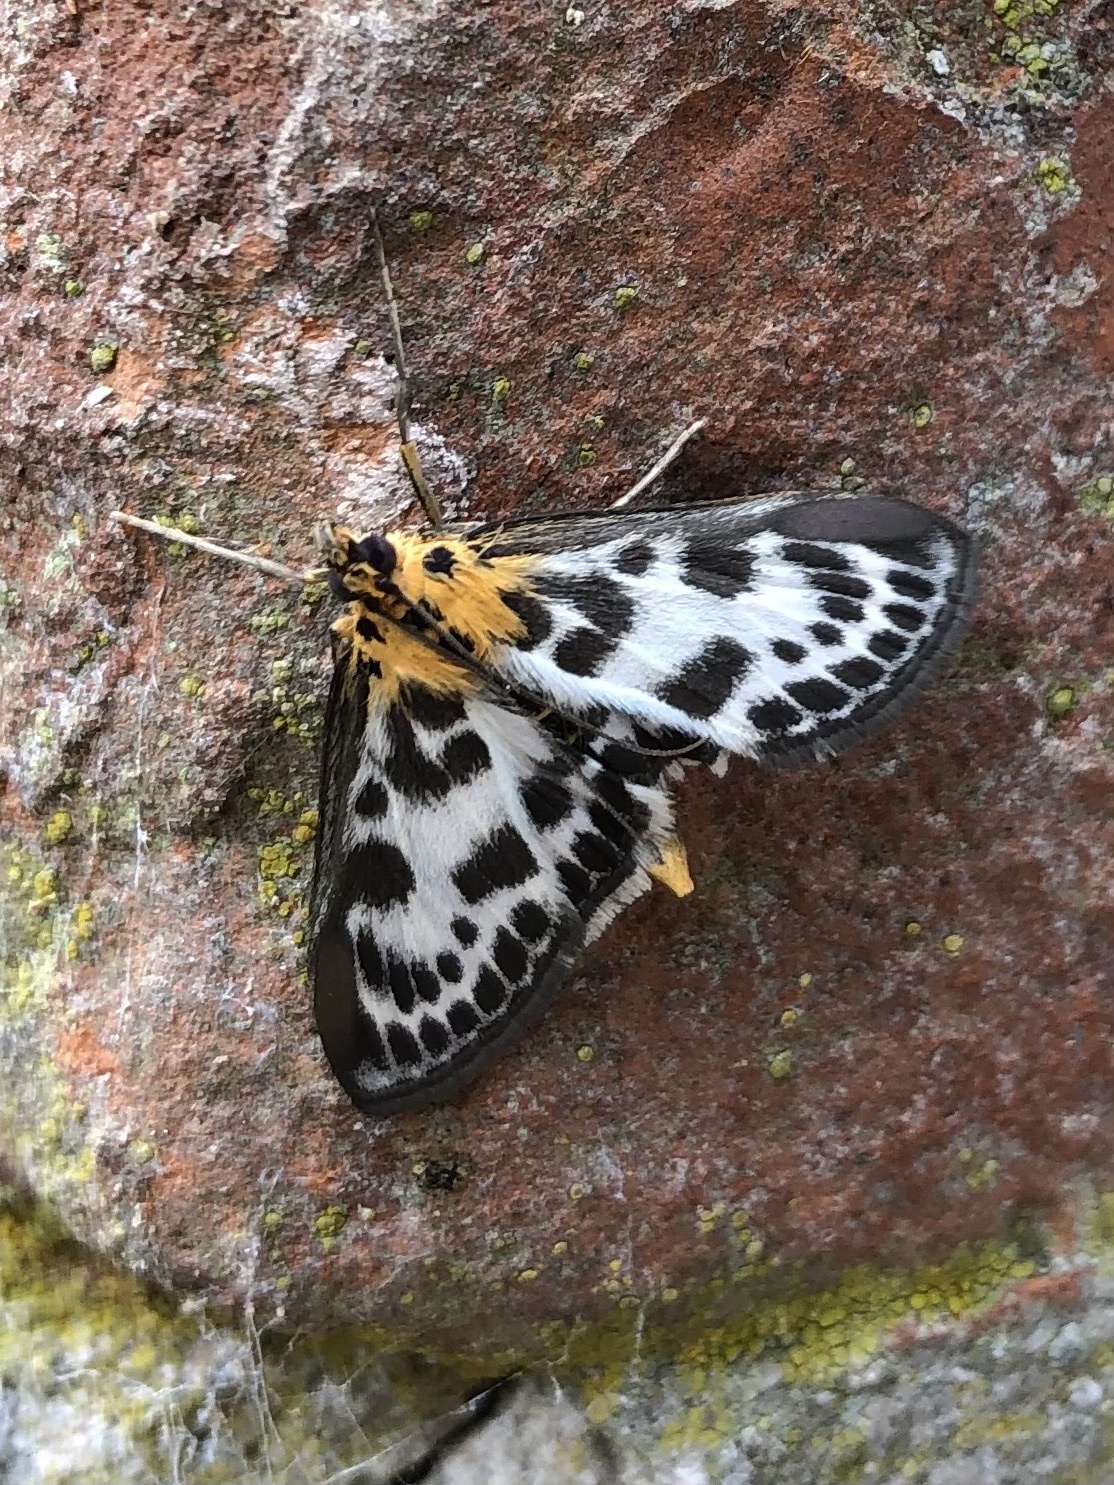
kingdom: Animalia
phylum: Arthropoda
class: Insecta
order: Lepidoptera
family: Crambidae
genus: Anania
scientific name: Anania hortulata
